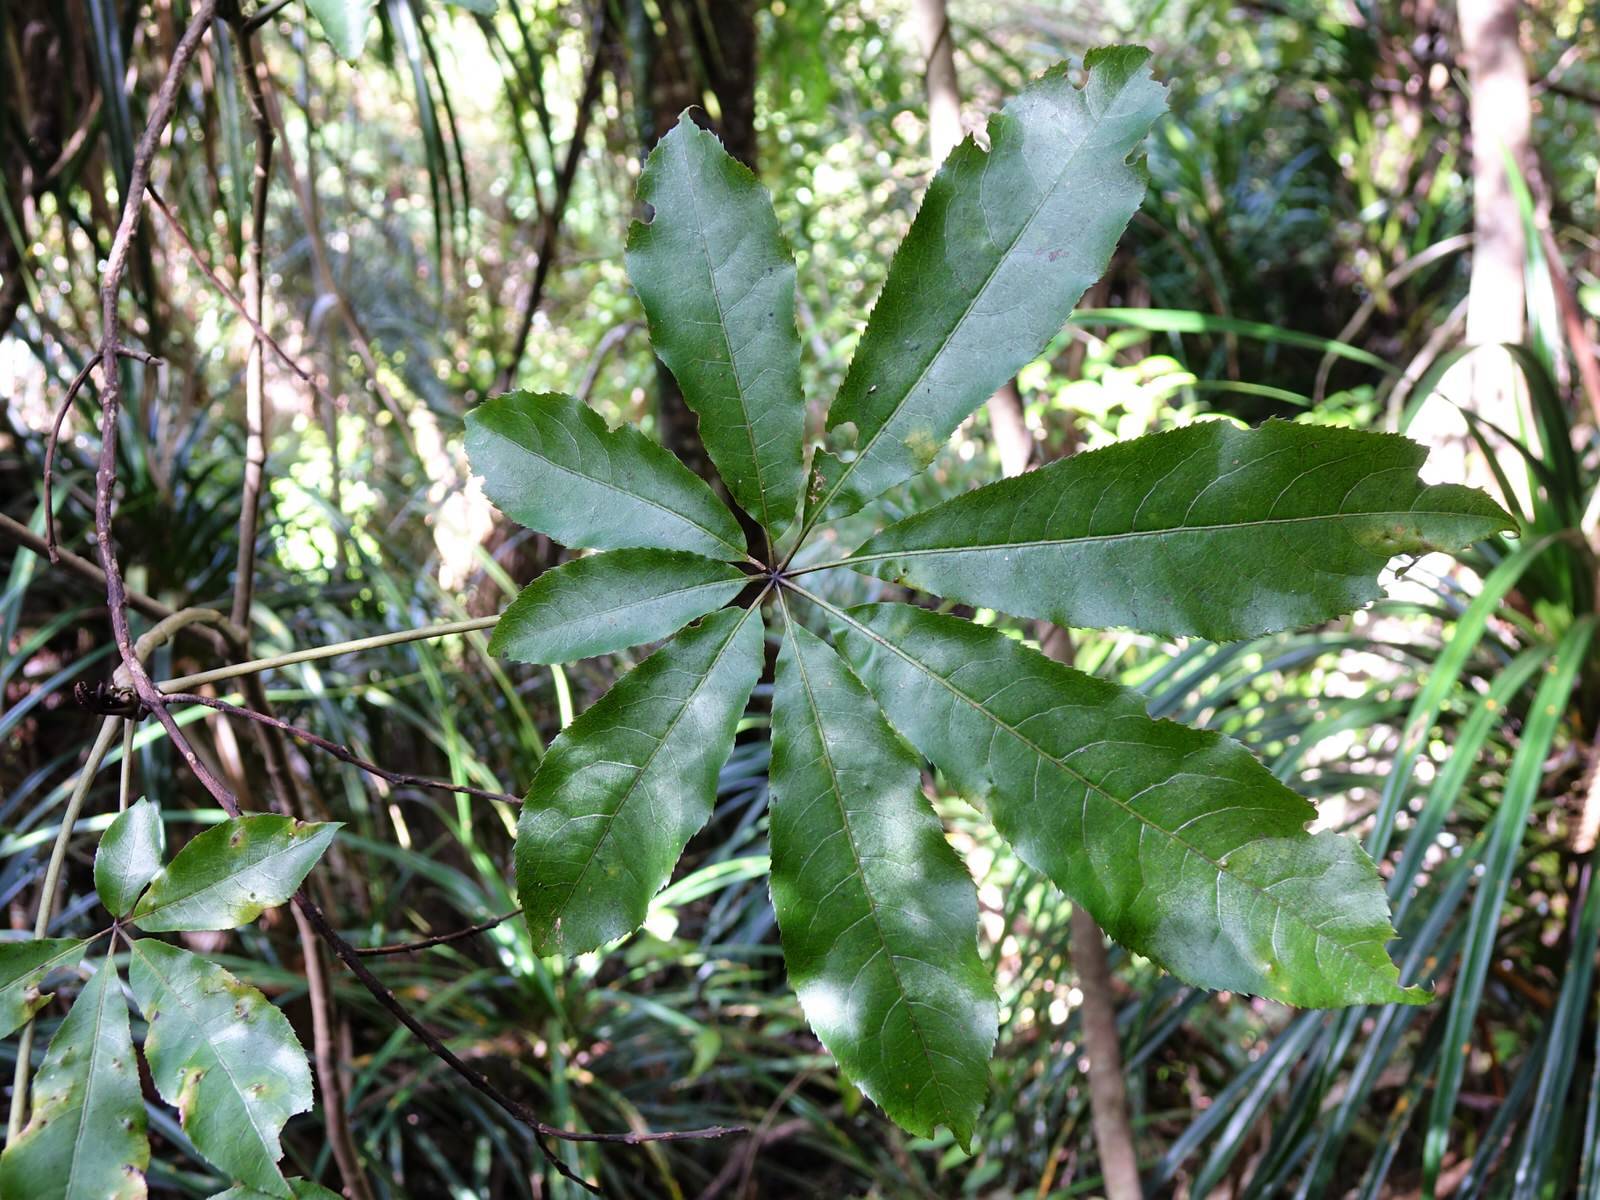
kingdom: Plantae
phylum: Tracheophyta
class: Magnoliopsida
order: Apiales
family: Araliaceae
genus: Schefflera
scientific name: Schefflera digitata
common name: Pate
